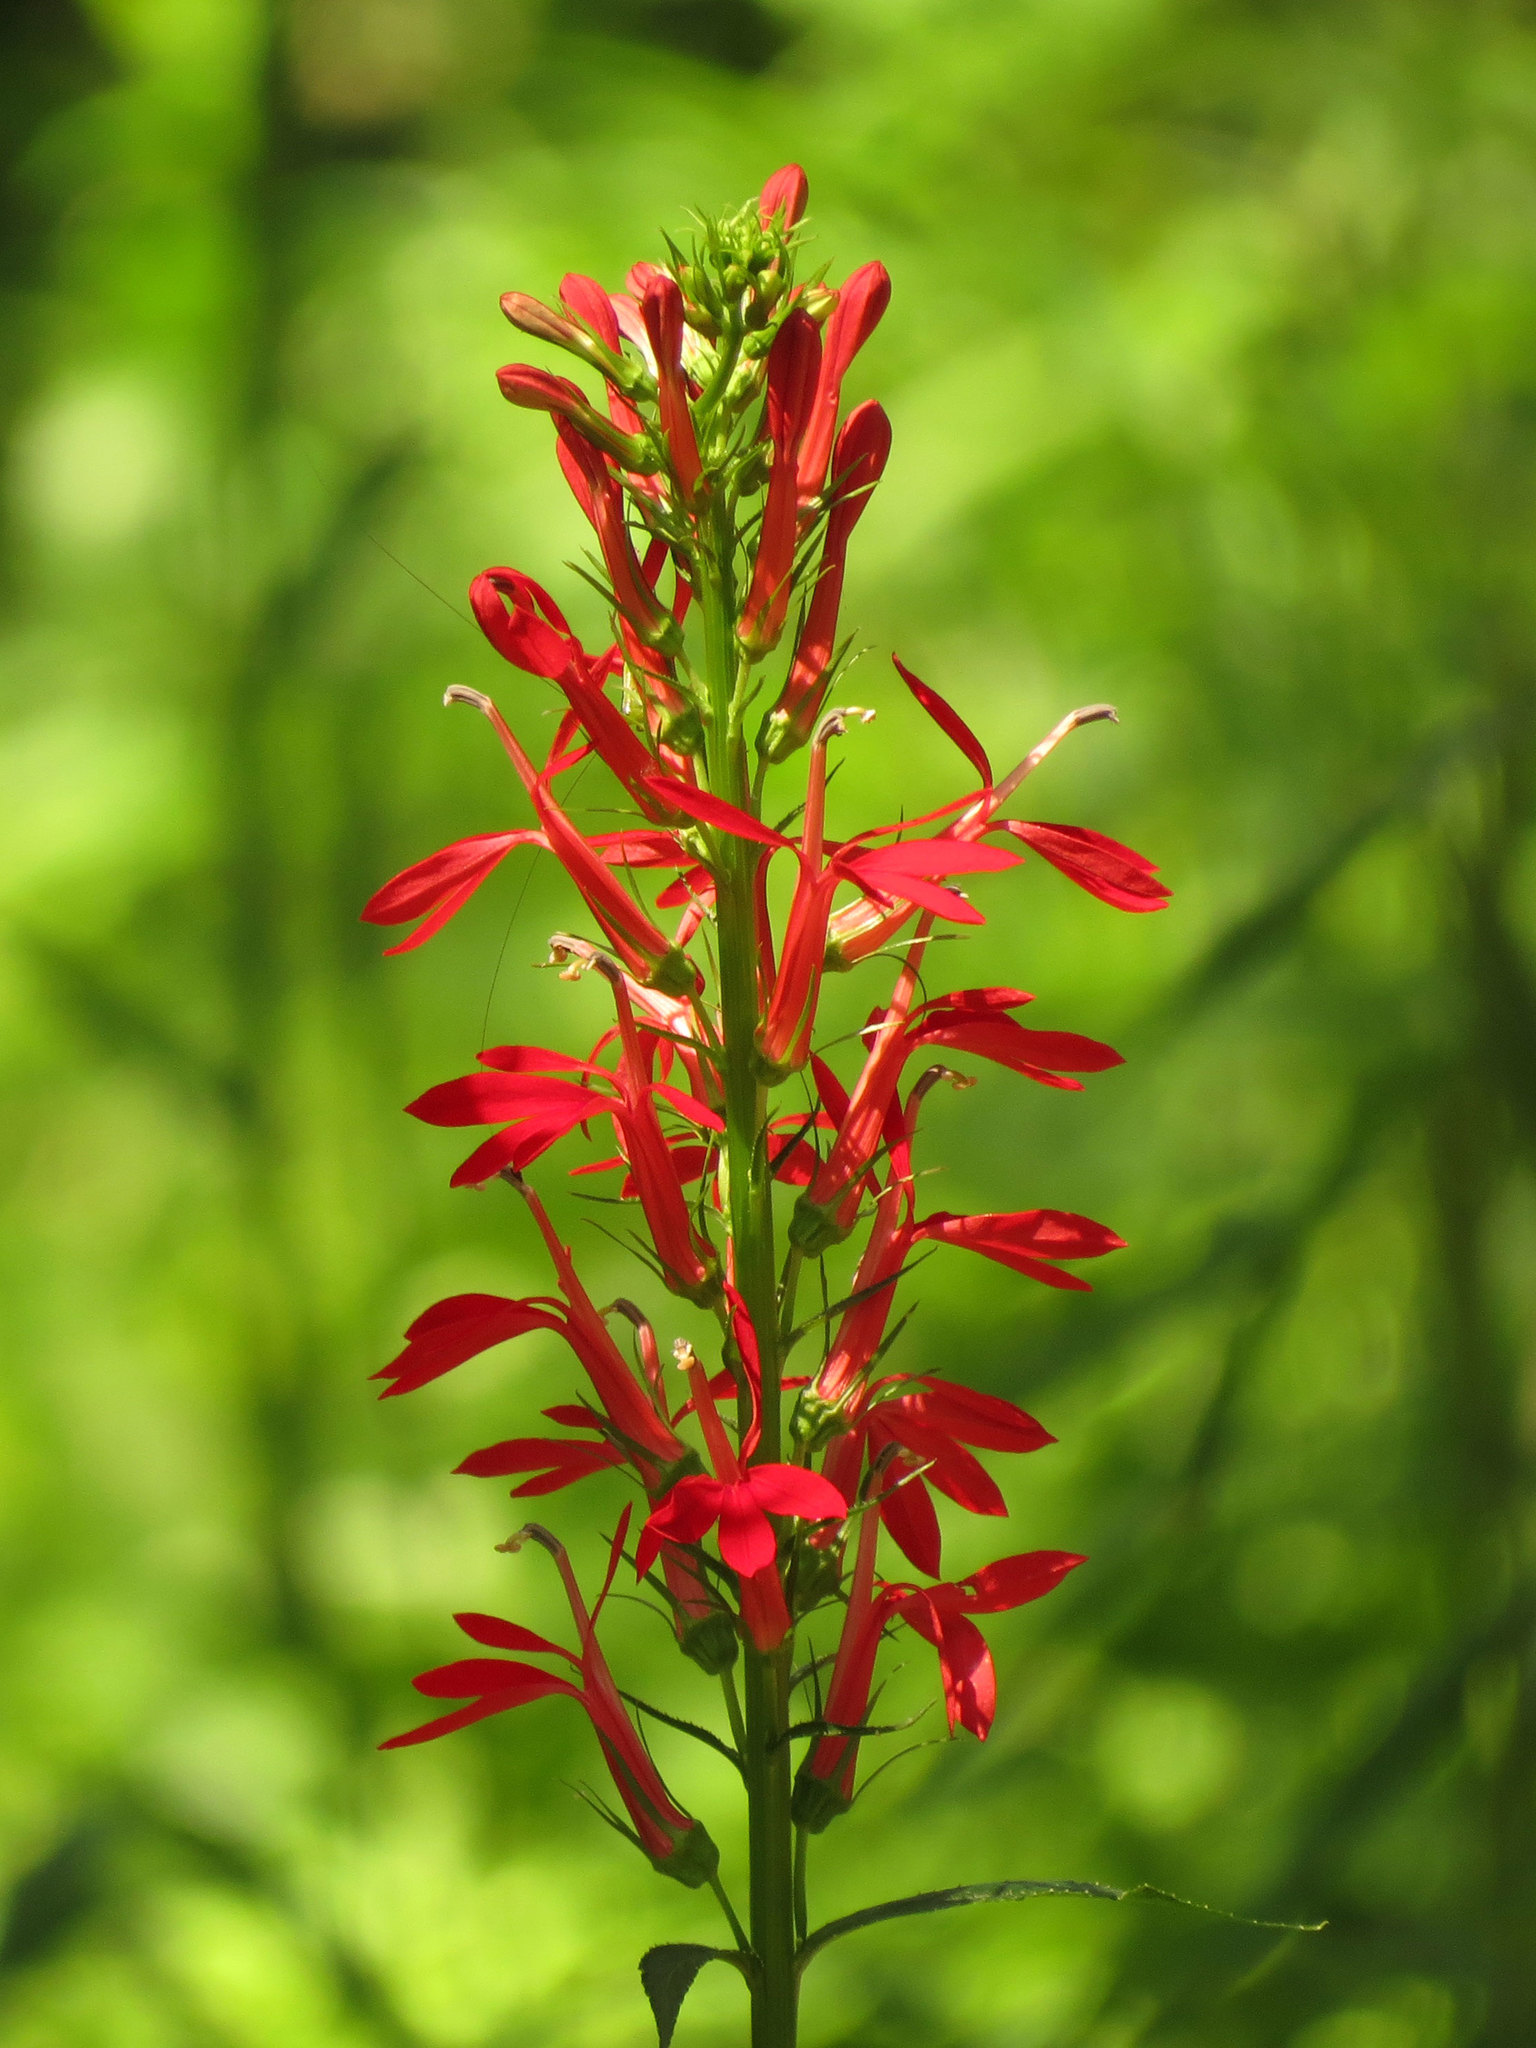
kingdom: Plantae
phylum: Tracheophyta
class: Magnoliopsida
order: Asterales
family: Campanulaceae
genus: Lobelia
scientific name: Lobelia cardinalis
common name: Cardinal flower
